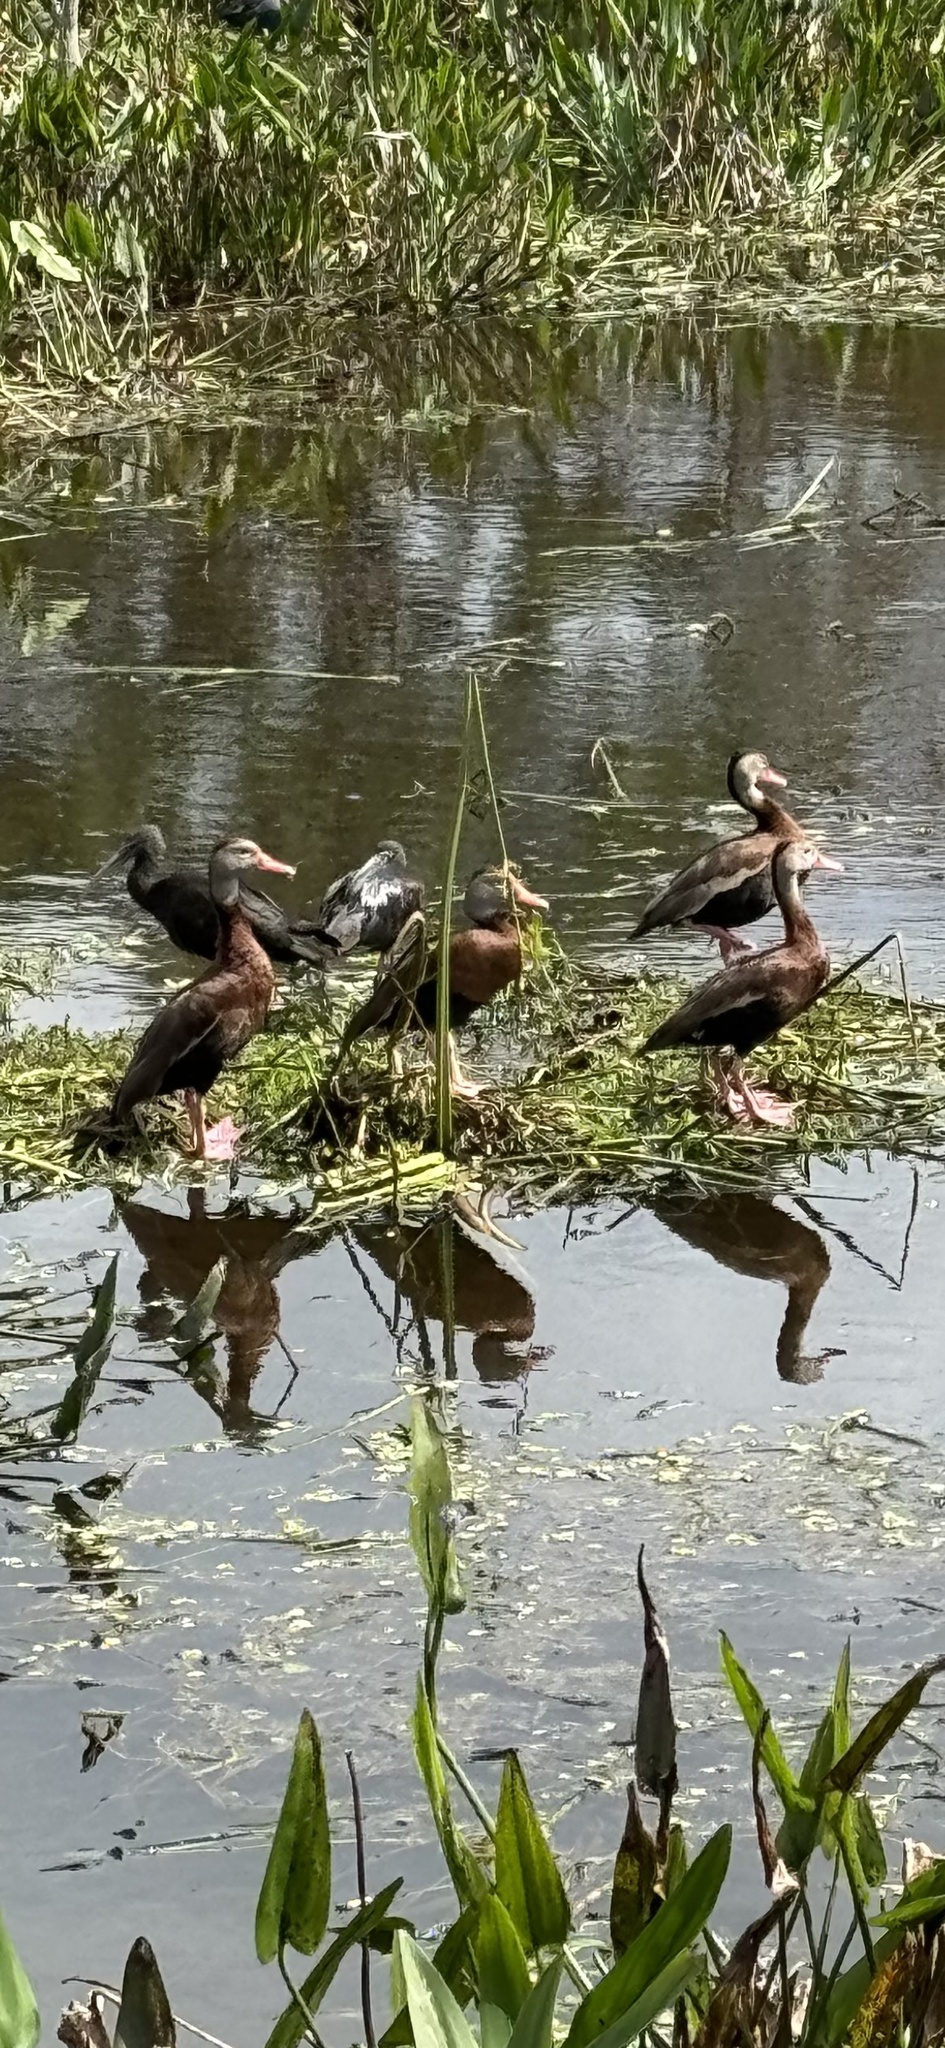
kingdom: Animalia
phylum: Chordata
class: Aves
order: Anseriformes
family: Anatidae
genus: Dendrocygna
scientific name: Dendrocygna autumnalis
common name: Black-bellied whistling duck
